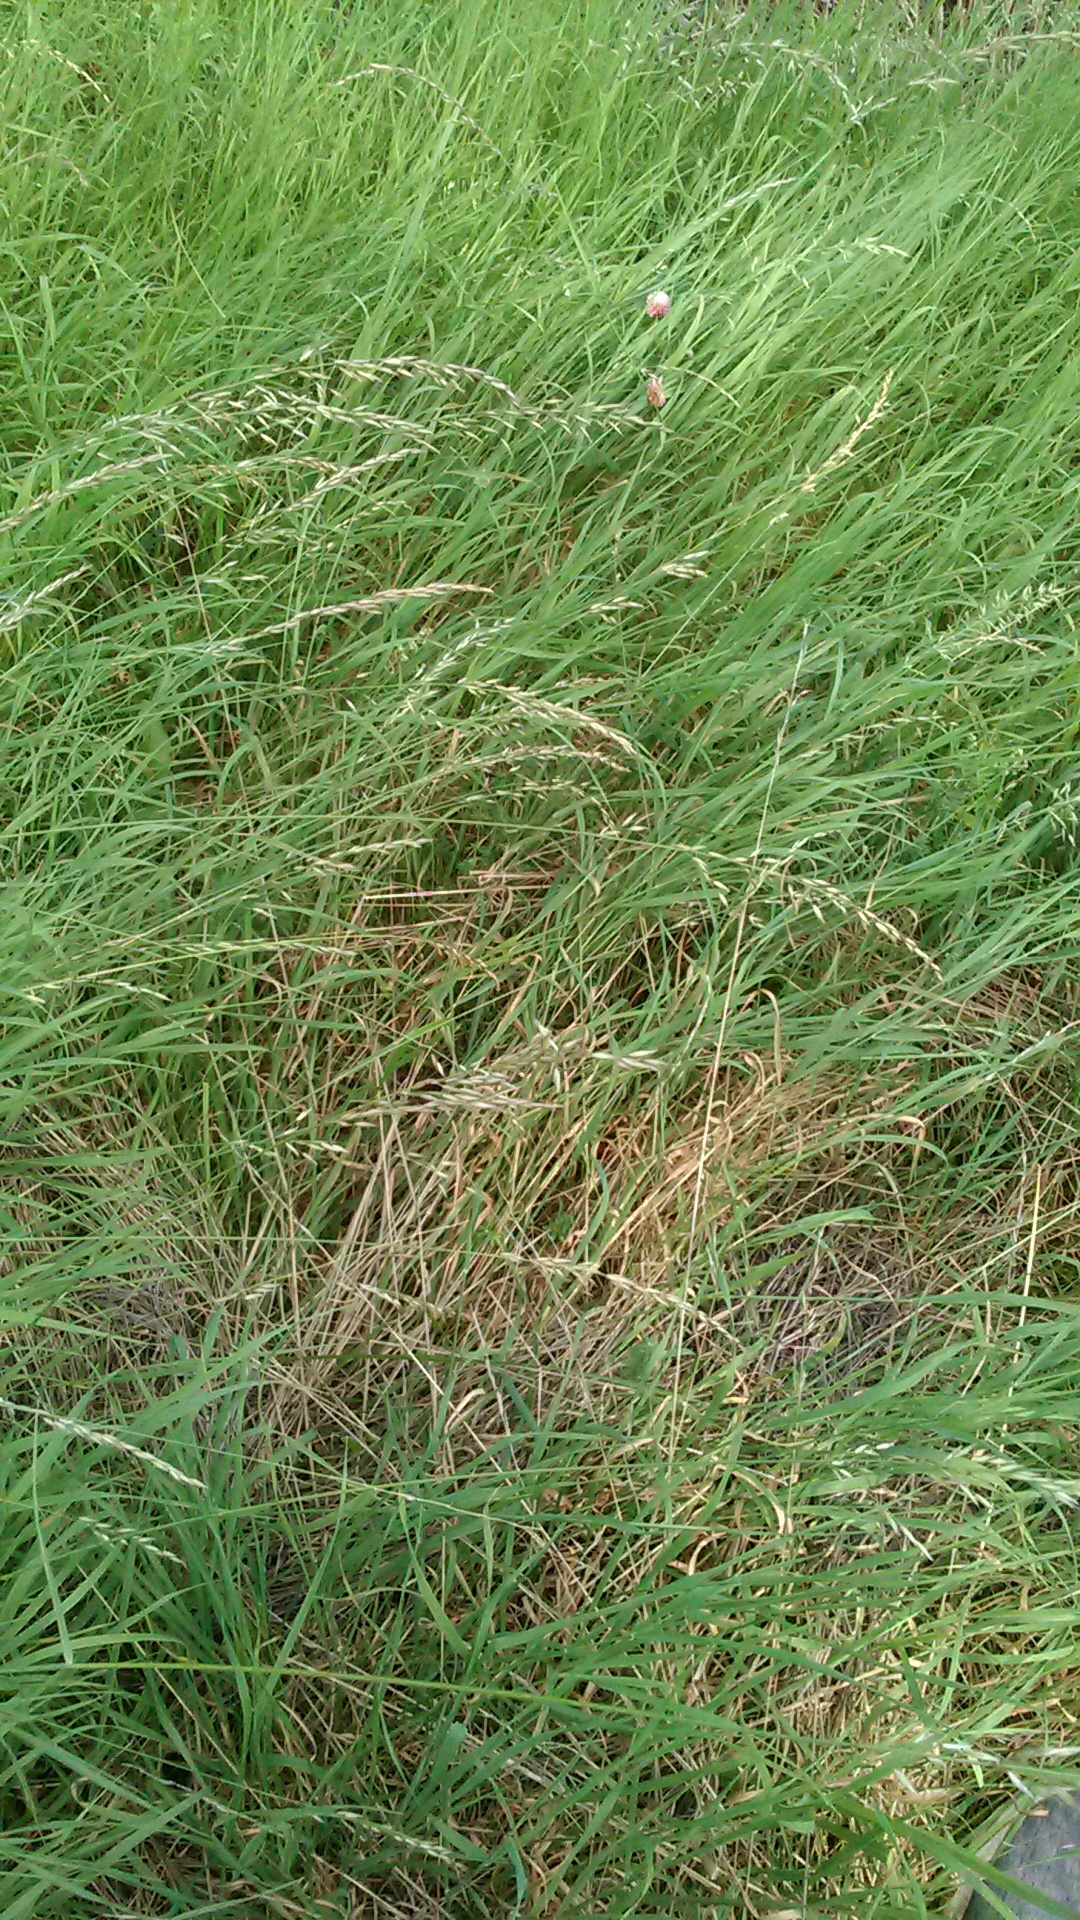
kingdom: Plantae
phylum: Tracheophyta
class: Liliopsida
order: Poales
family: Poaceae
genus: Arrhenatherum
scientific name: Arrhenatherum elatius
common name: Tall oatgrass
